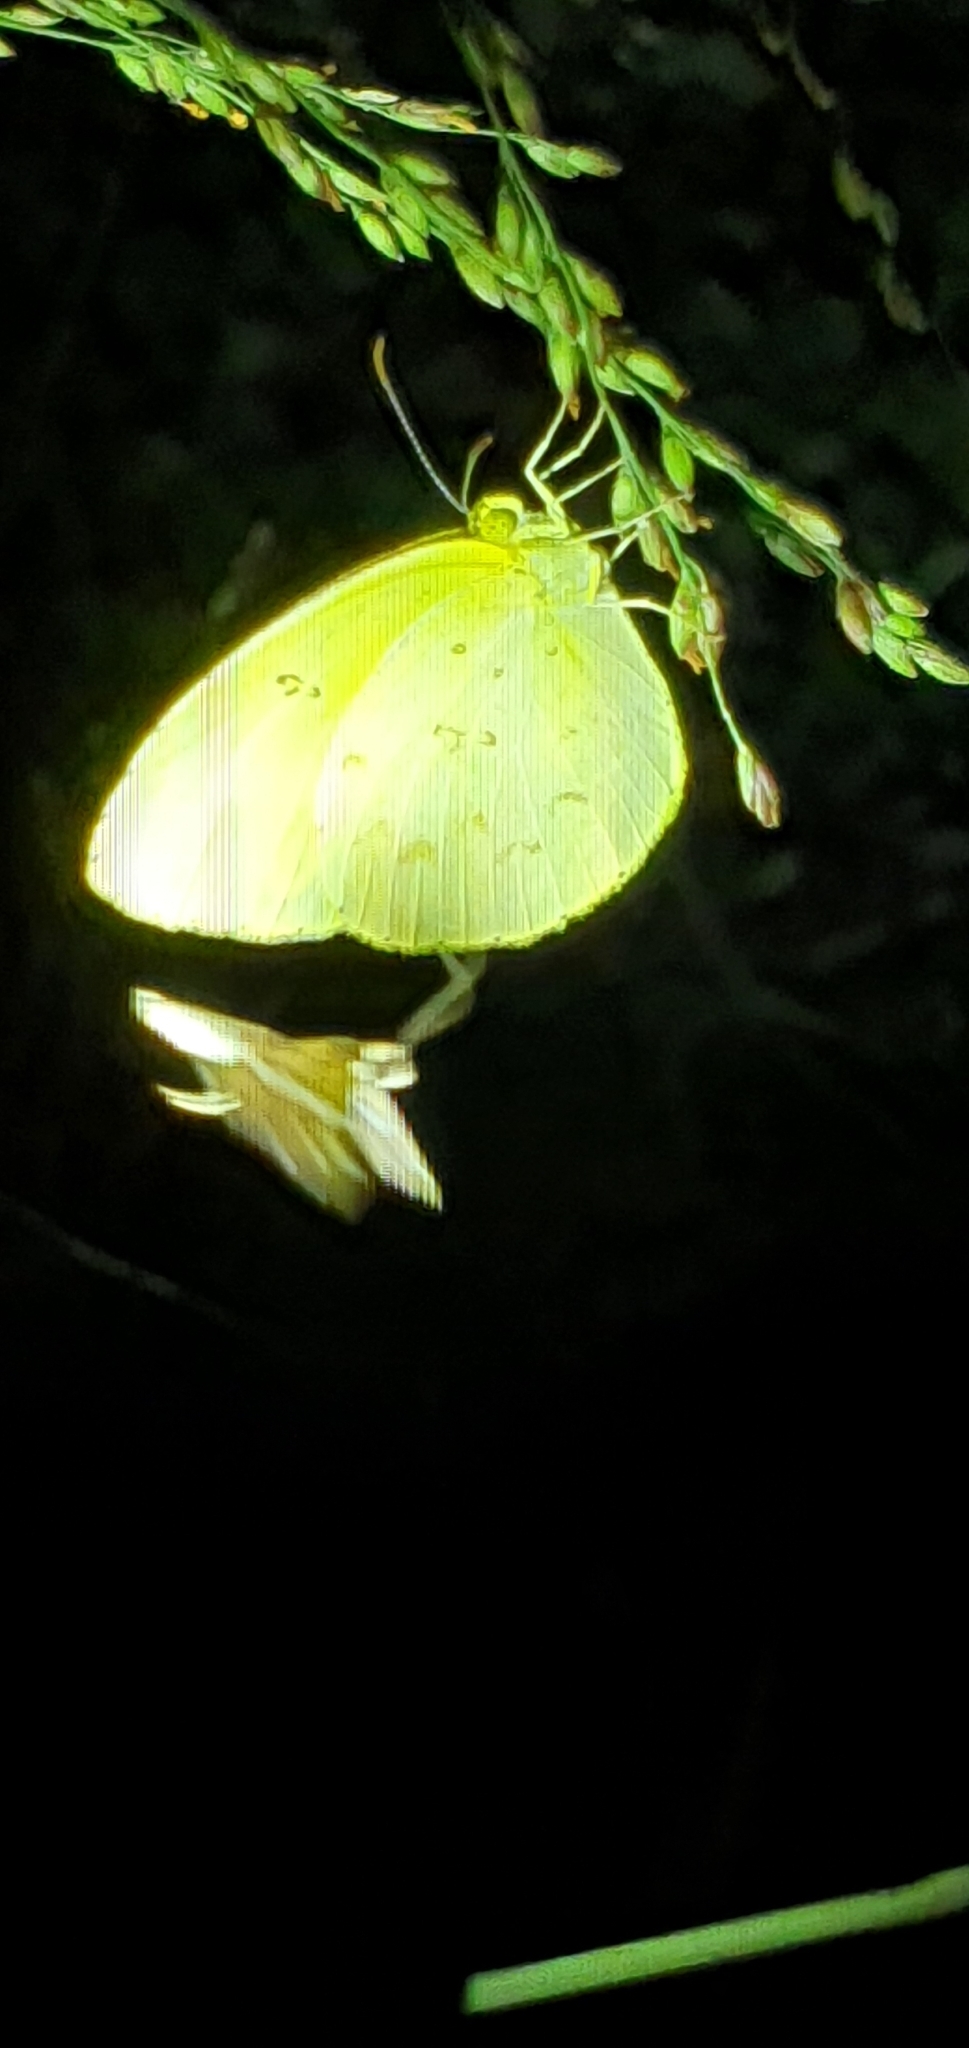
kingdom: Animalia
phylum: Arthropoda
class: Insecta
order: Lepidoptera
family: Pieridae
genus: Catopsilia
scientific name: Catopsilia pomona
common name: Common emigrant
